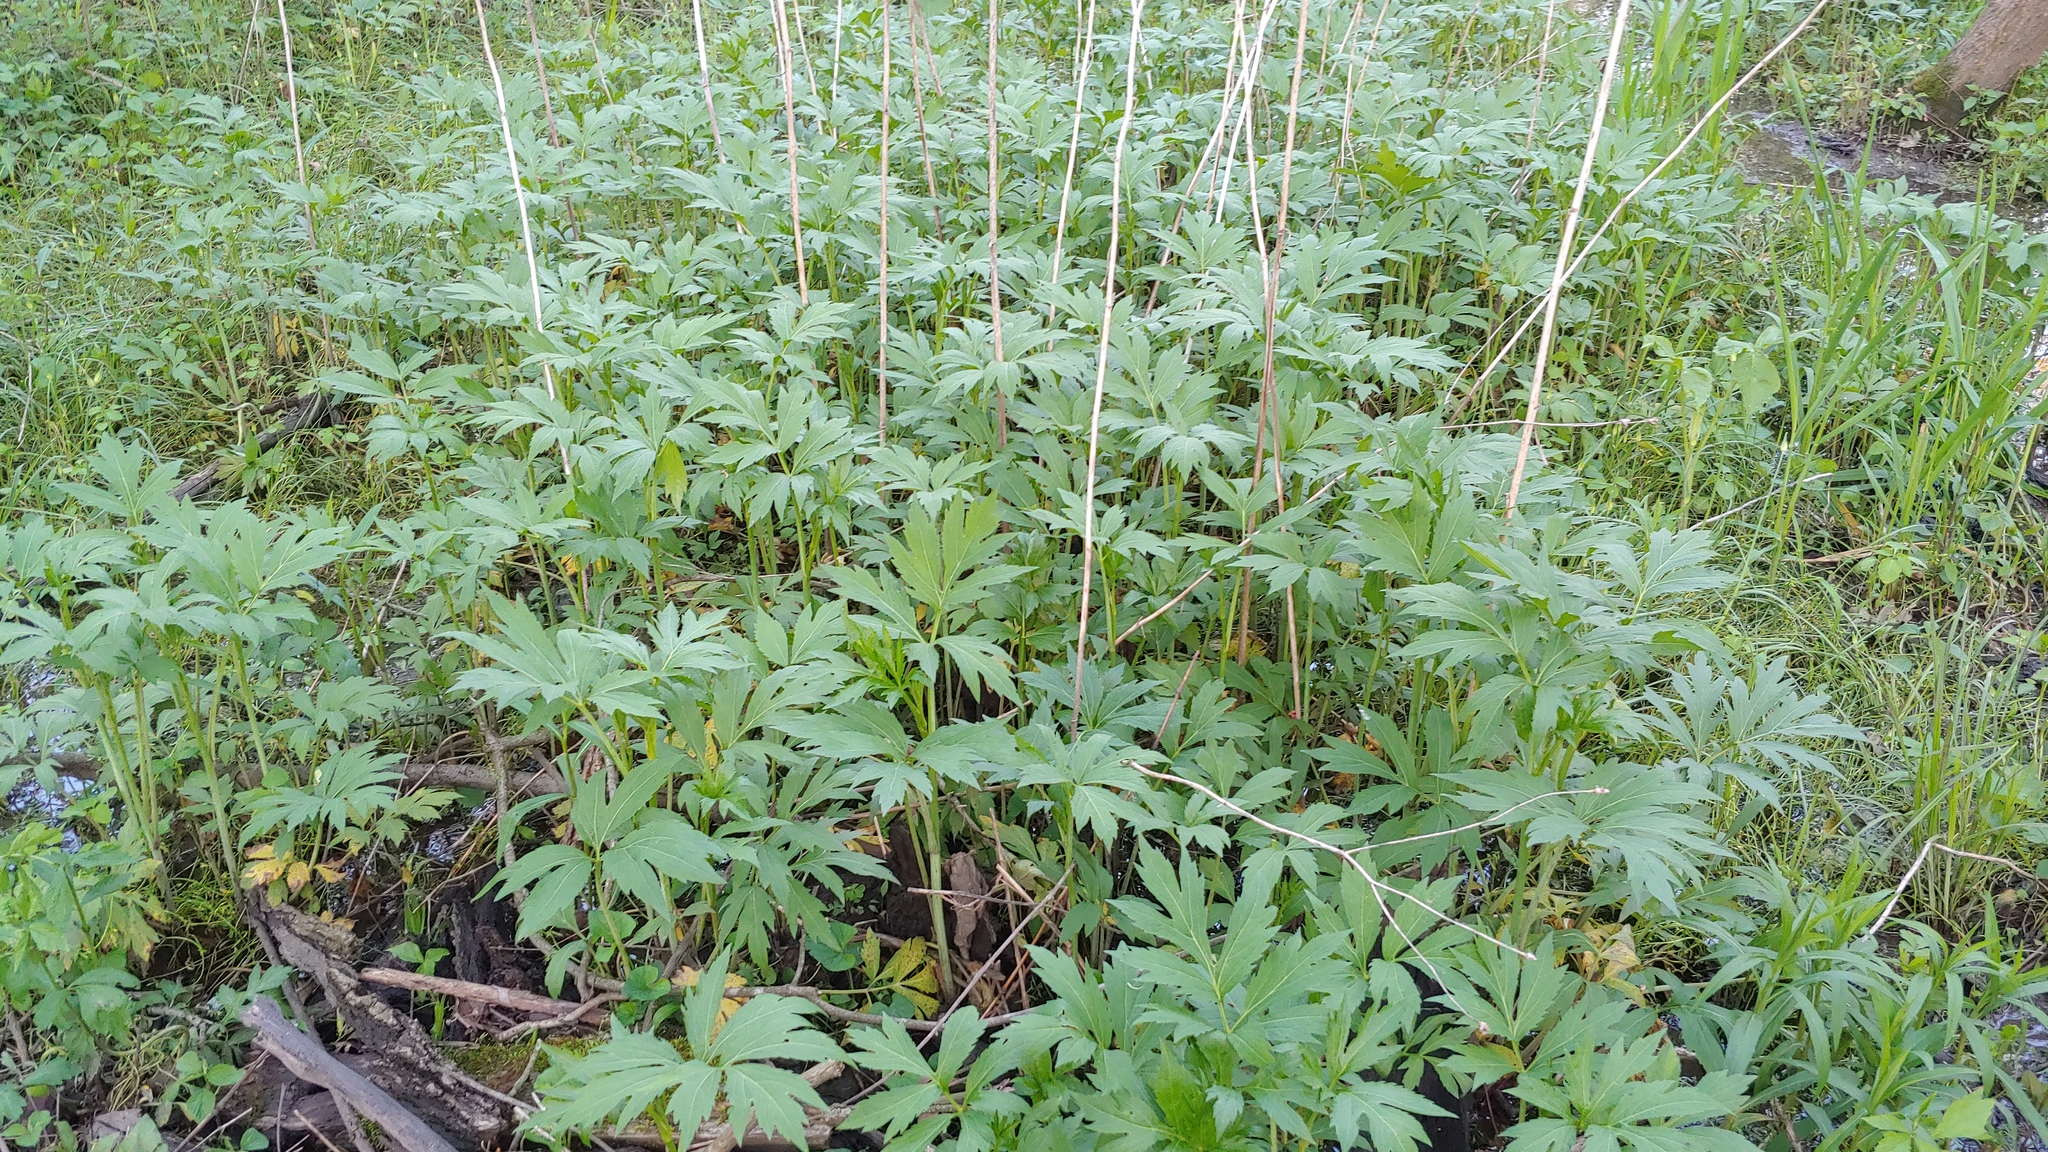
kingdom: Plantae
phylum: Tracheophyta
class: Magnoliopsida
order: Asterales
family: Asteraceae
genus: Rudbeckia
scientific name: Rudbeckia laciniata
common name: Coneflower
